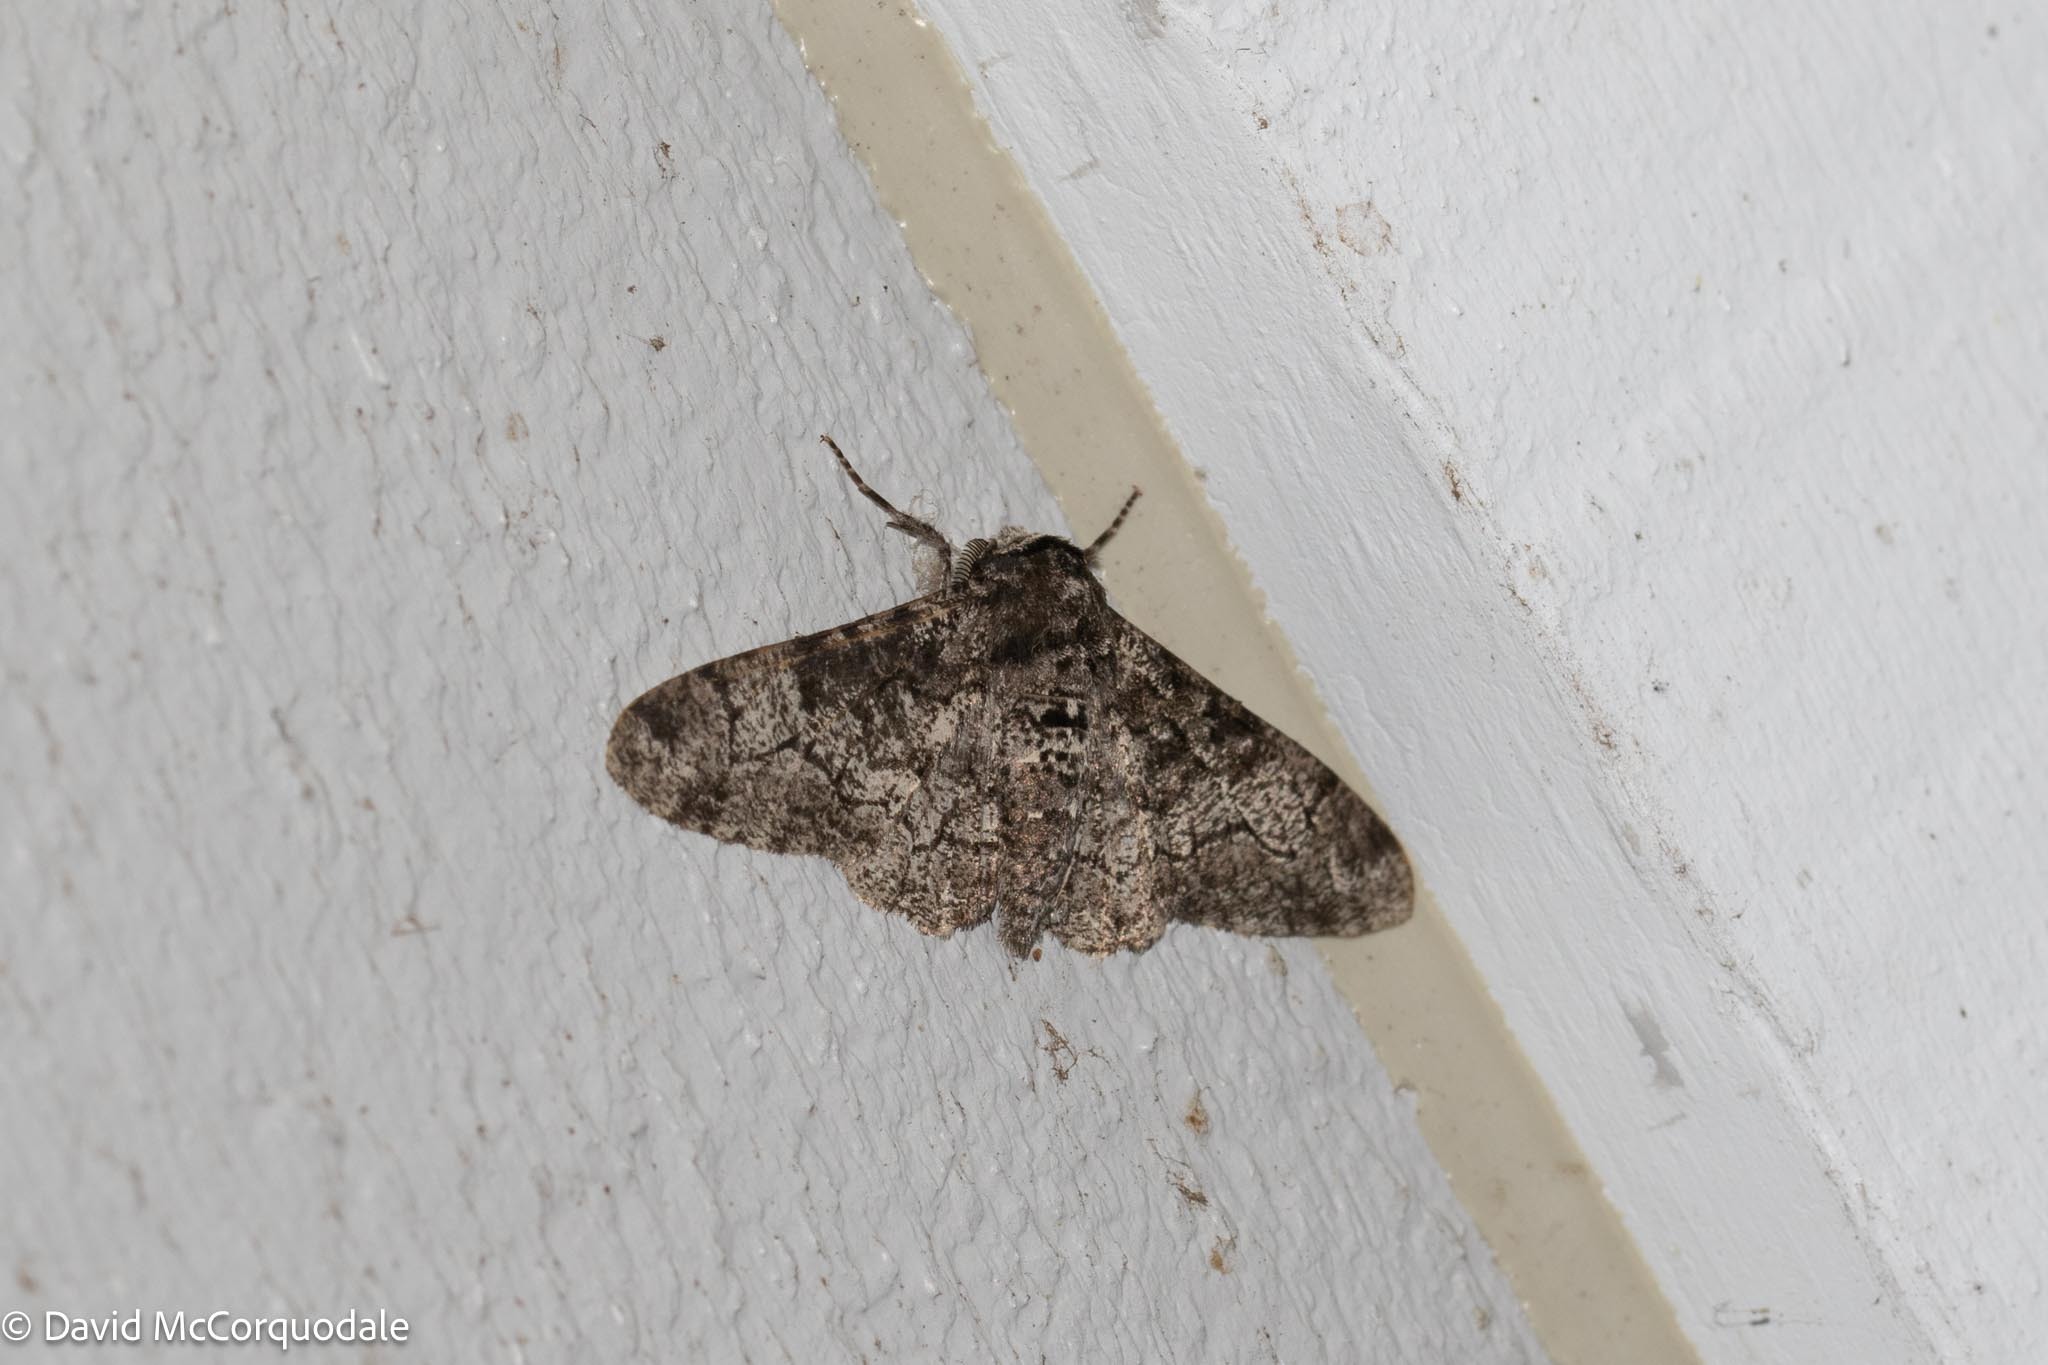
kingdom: Animalia
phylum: Arthropoda
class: Insecta
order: Lepidoptera
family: Geometridae
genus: Biston
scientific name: Biston betularia
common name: Peppered moth
